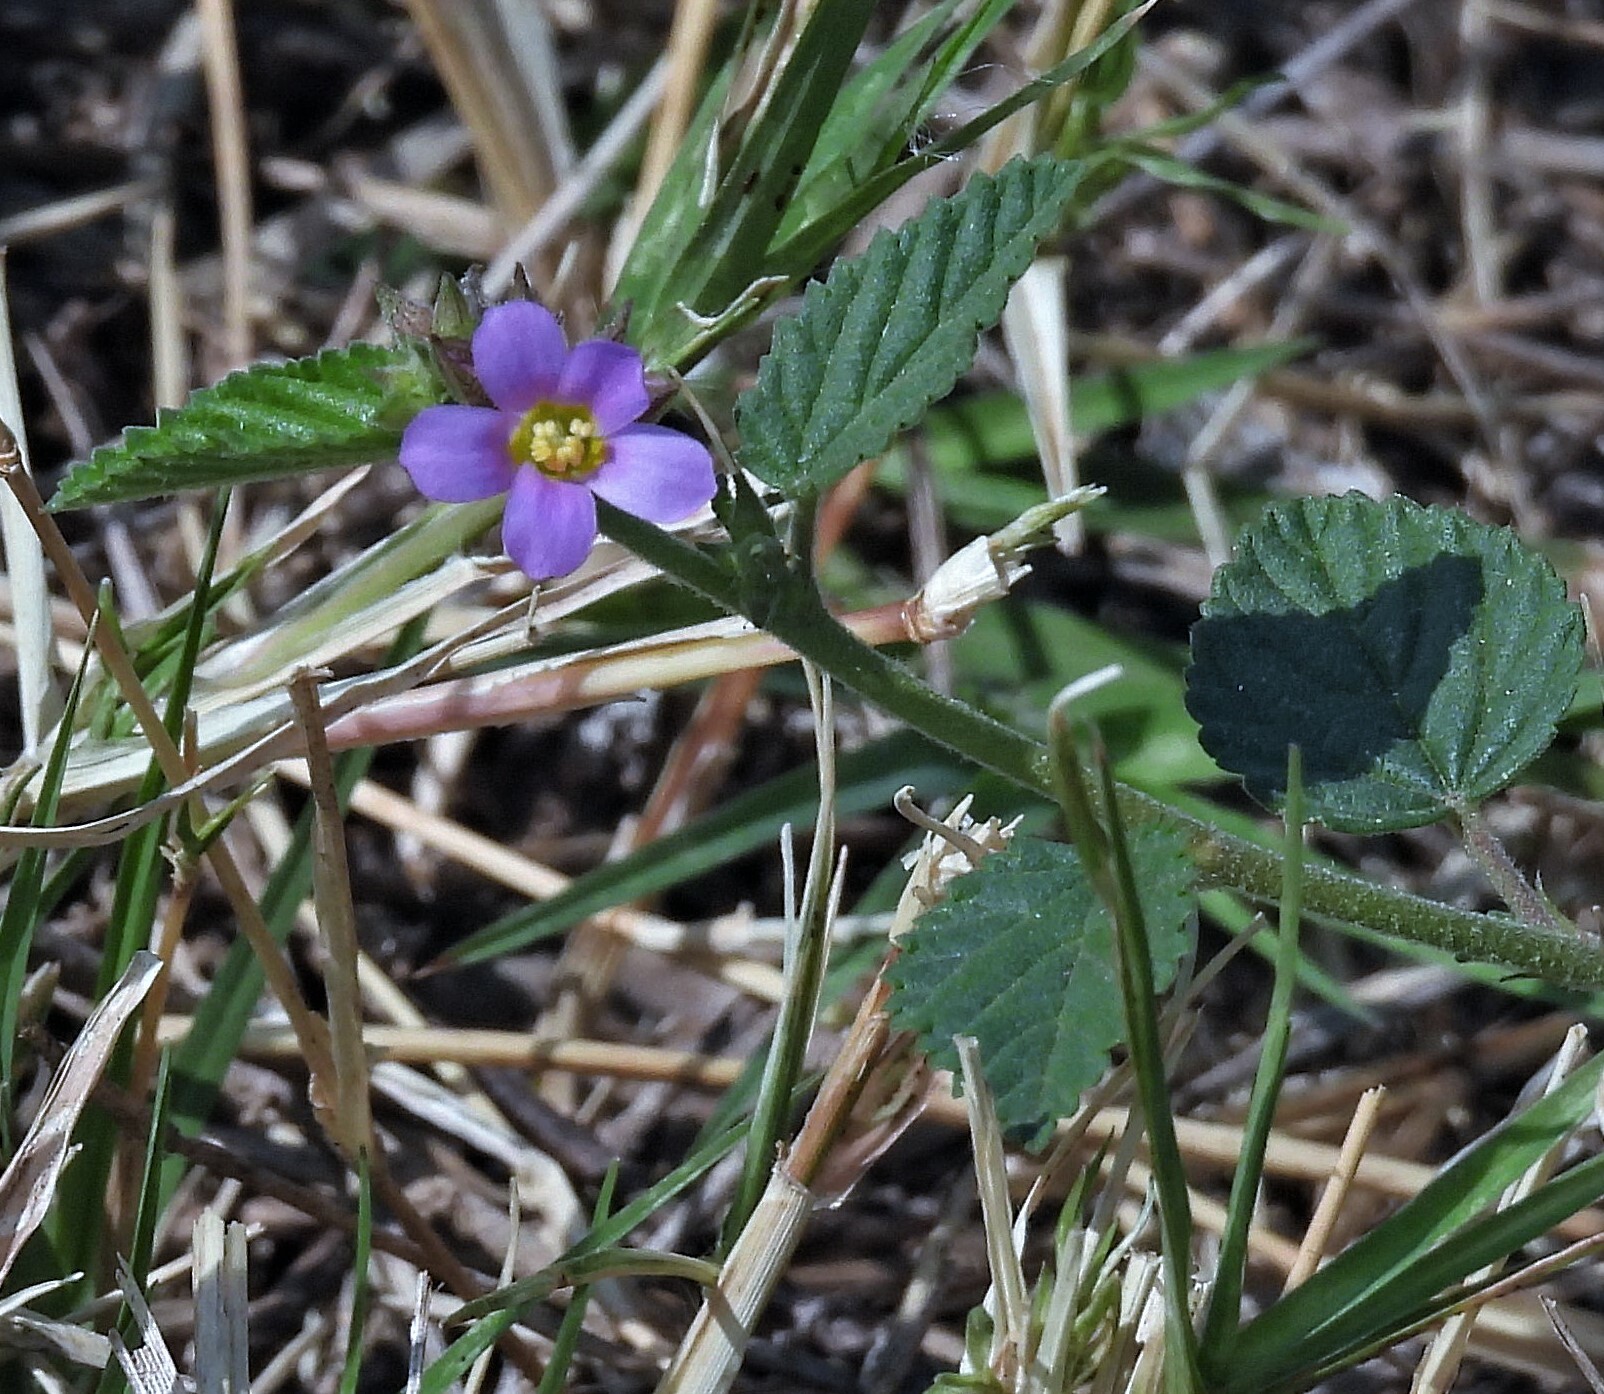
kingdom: Plantae
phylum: Tracheophyta
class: Magnoliopsida
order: Malvales
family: Malvaceae
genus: Melochia
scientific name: Melochia pyramidata
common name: Pyramidflower
